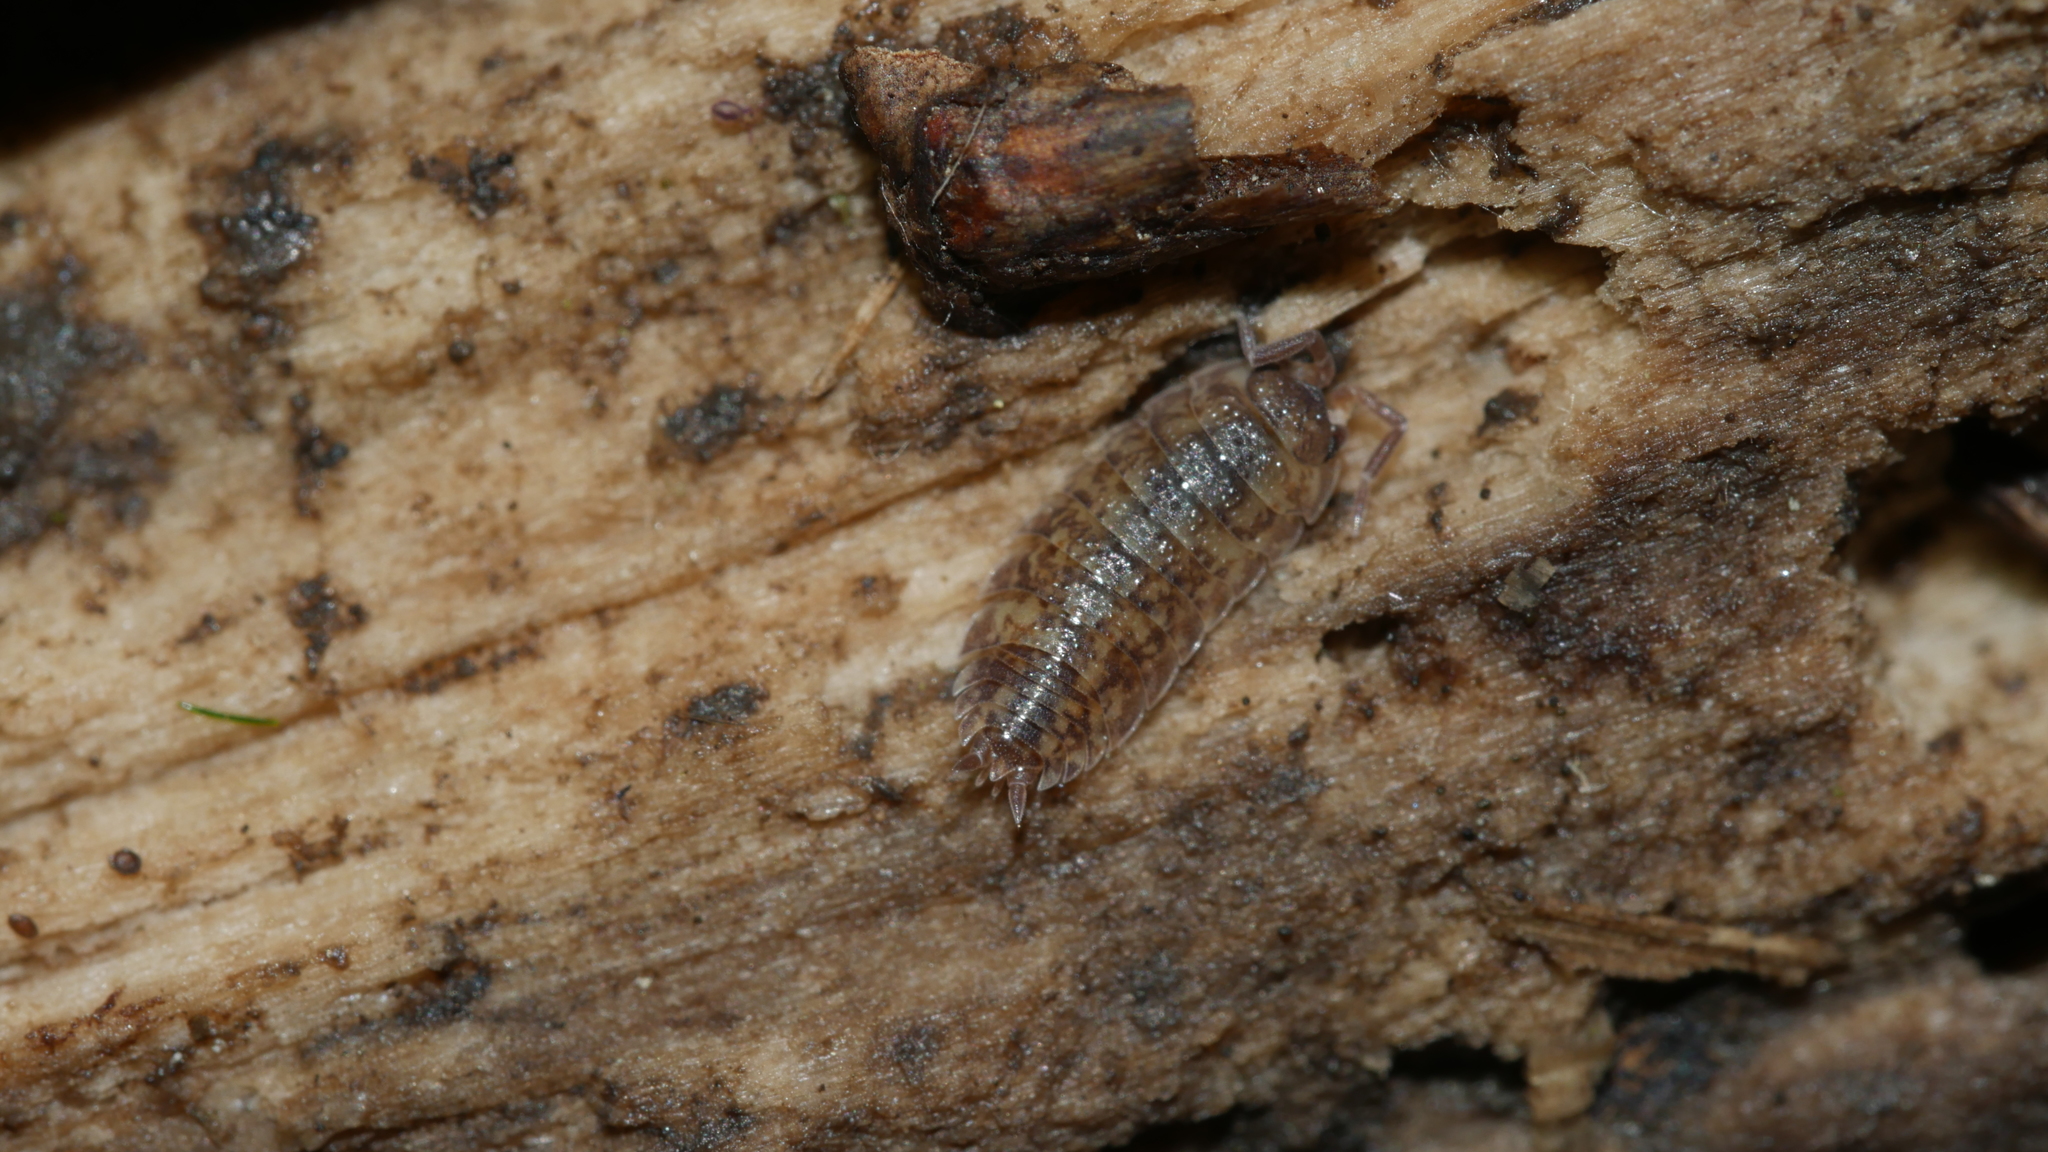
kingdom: Animalia
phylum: Arthropoda
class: Malacostraca
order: Isopoda
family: Porcellionidae
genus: Porcellio
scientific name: Porcellio scaber
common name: Common rough woodlouse
